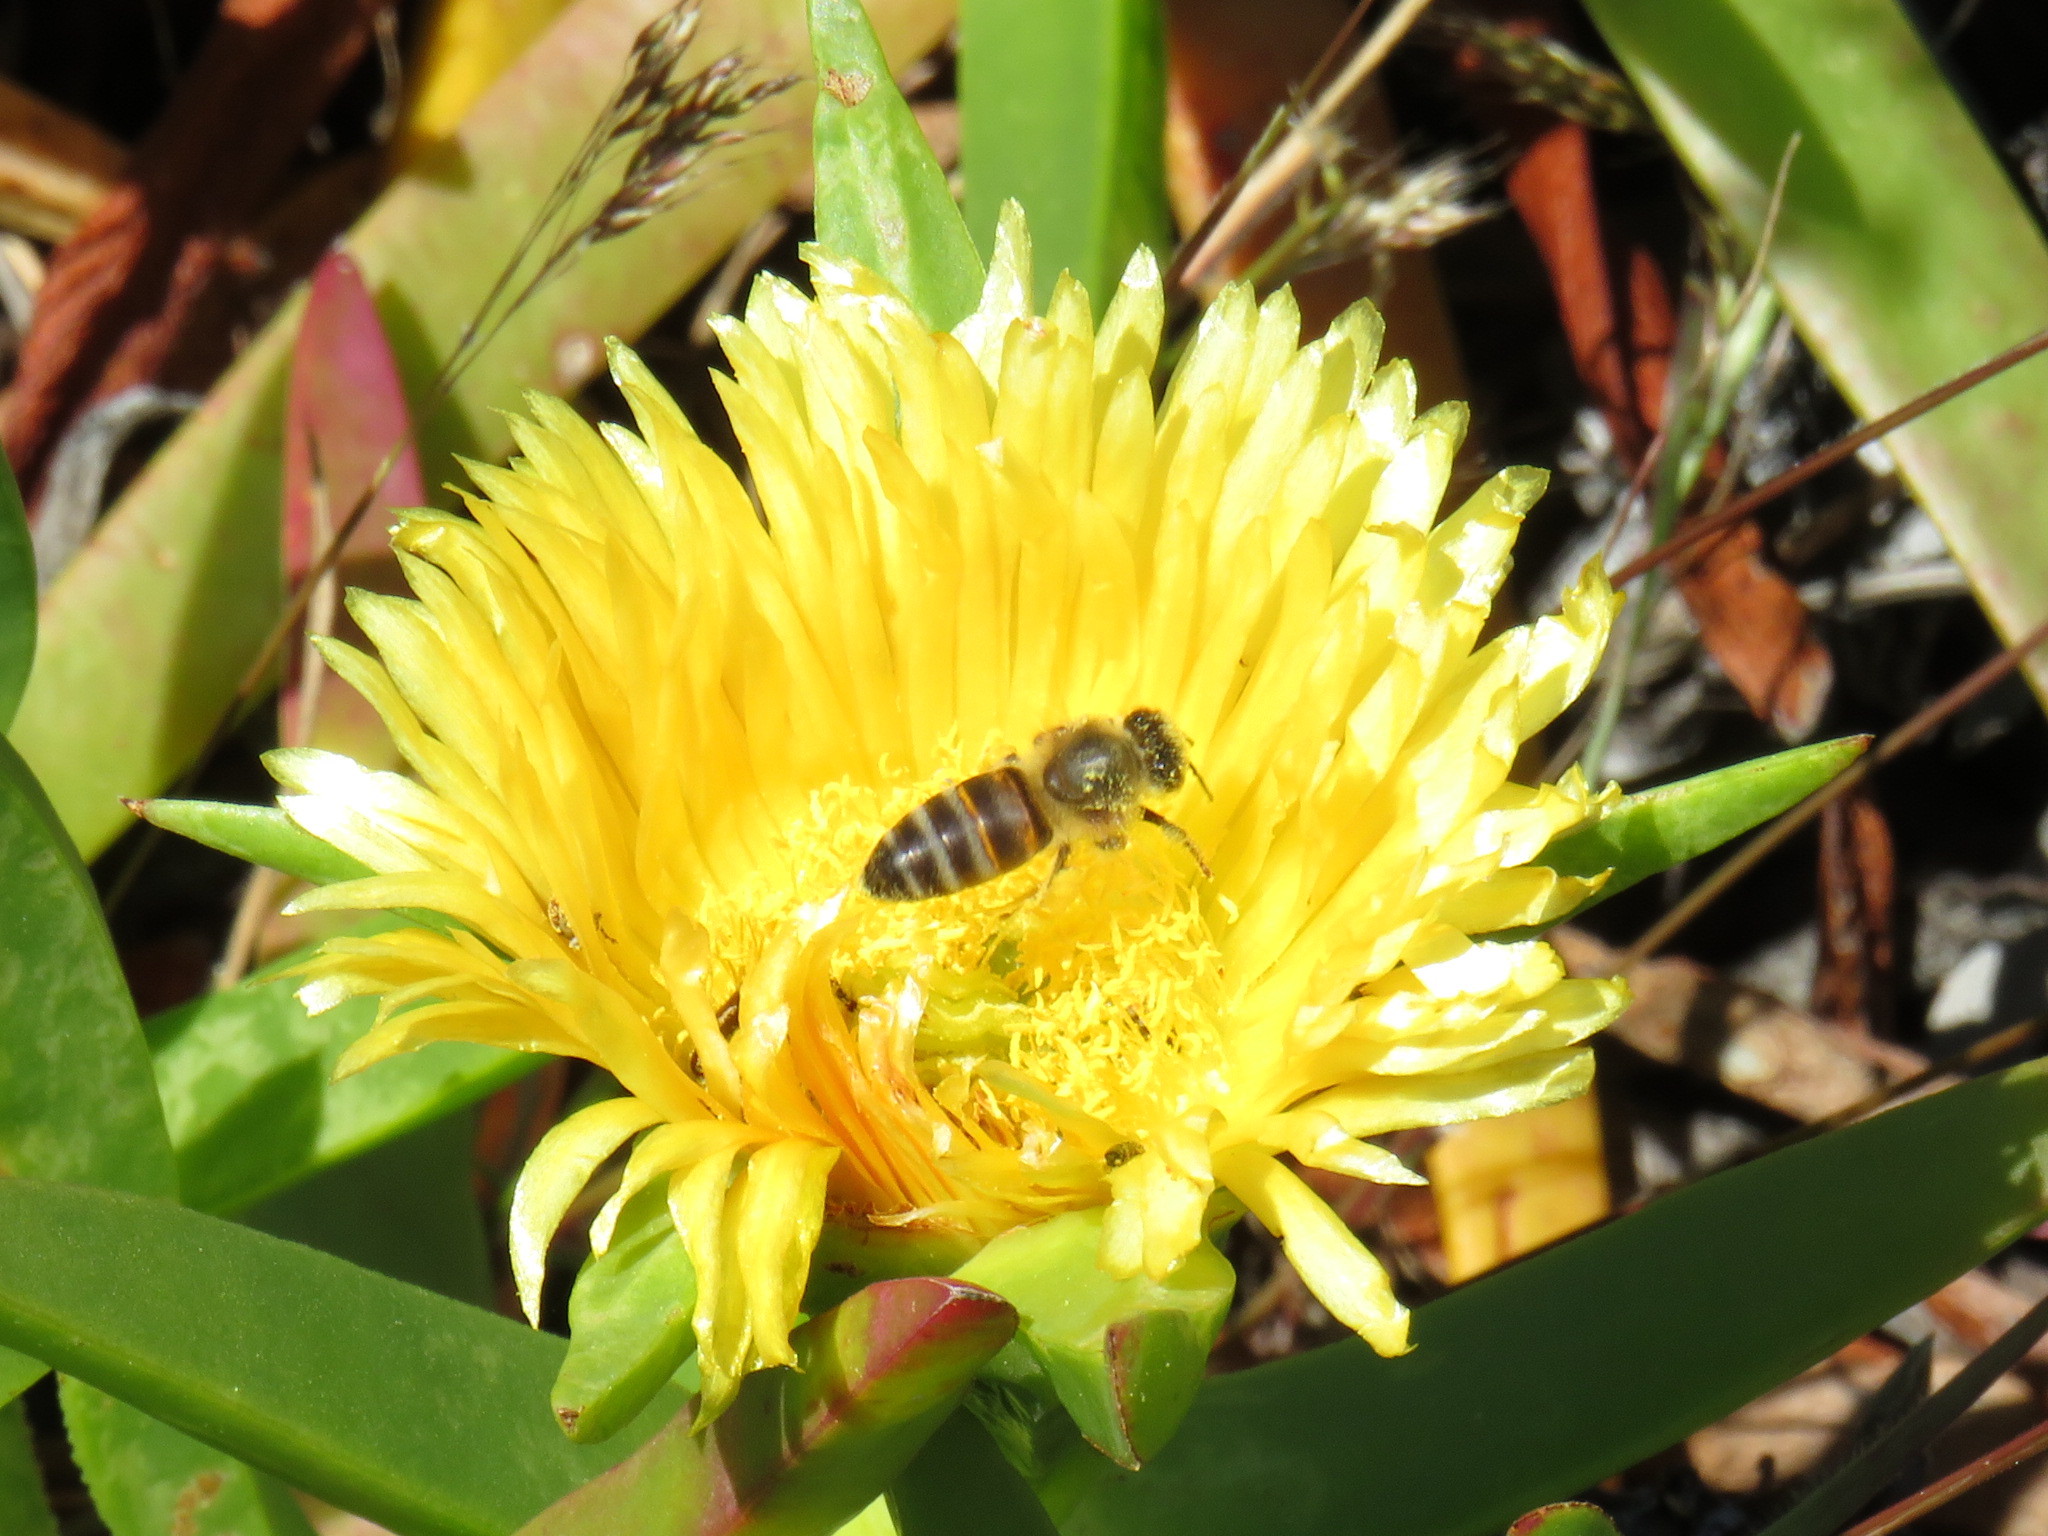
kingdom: Plantae
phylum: Tracheophyta
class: Magnoliopsida
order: Caryophyllales
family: Aizoaceae
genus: Carpobrotus
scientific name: Carpobrotus edulis
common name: Hottentot-fig
